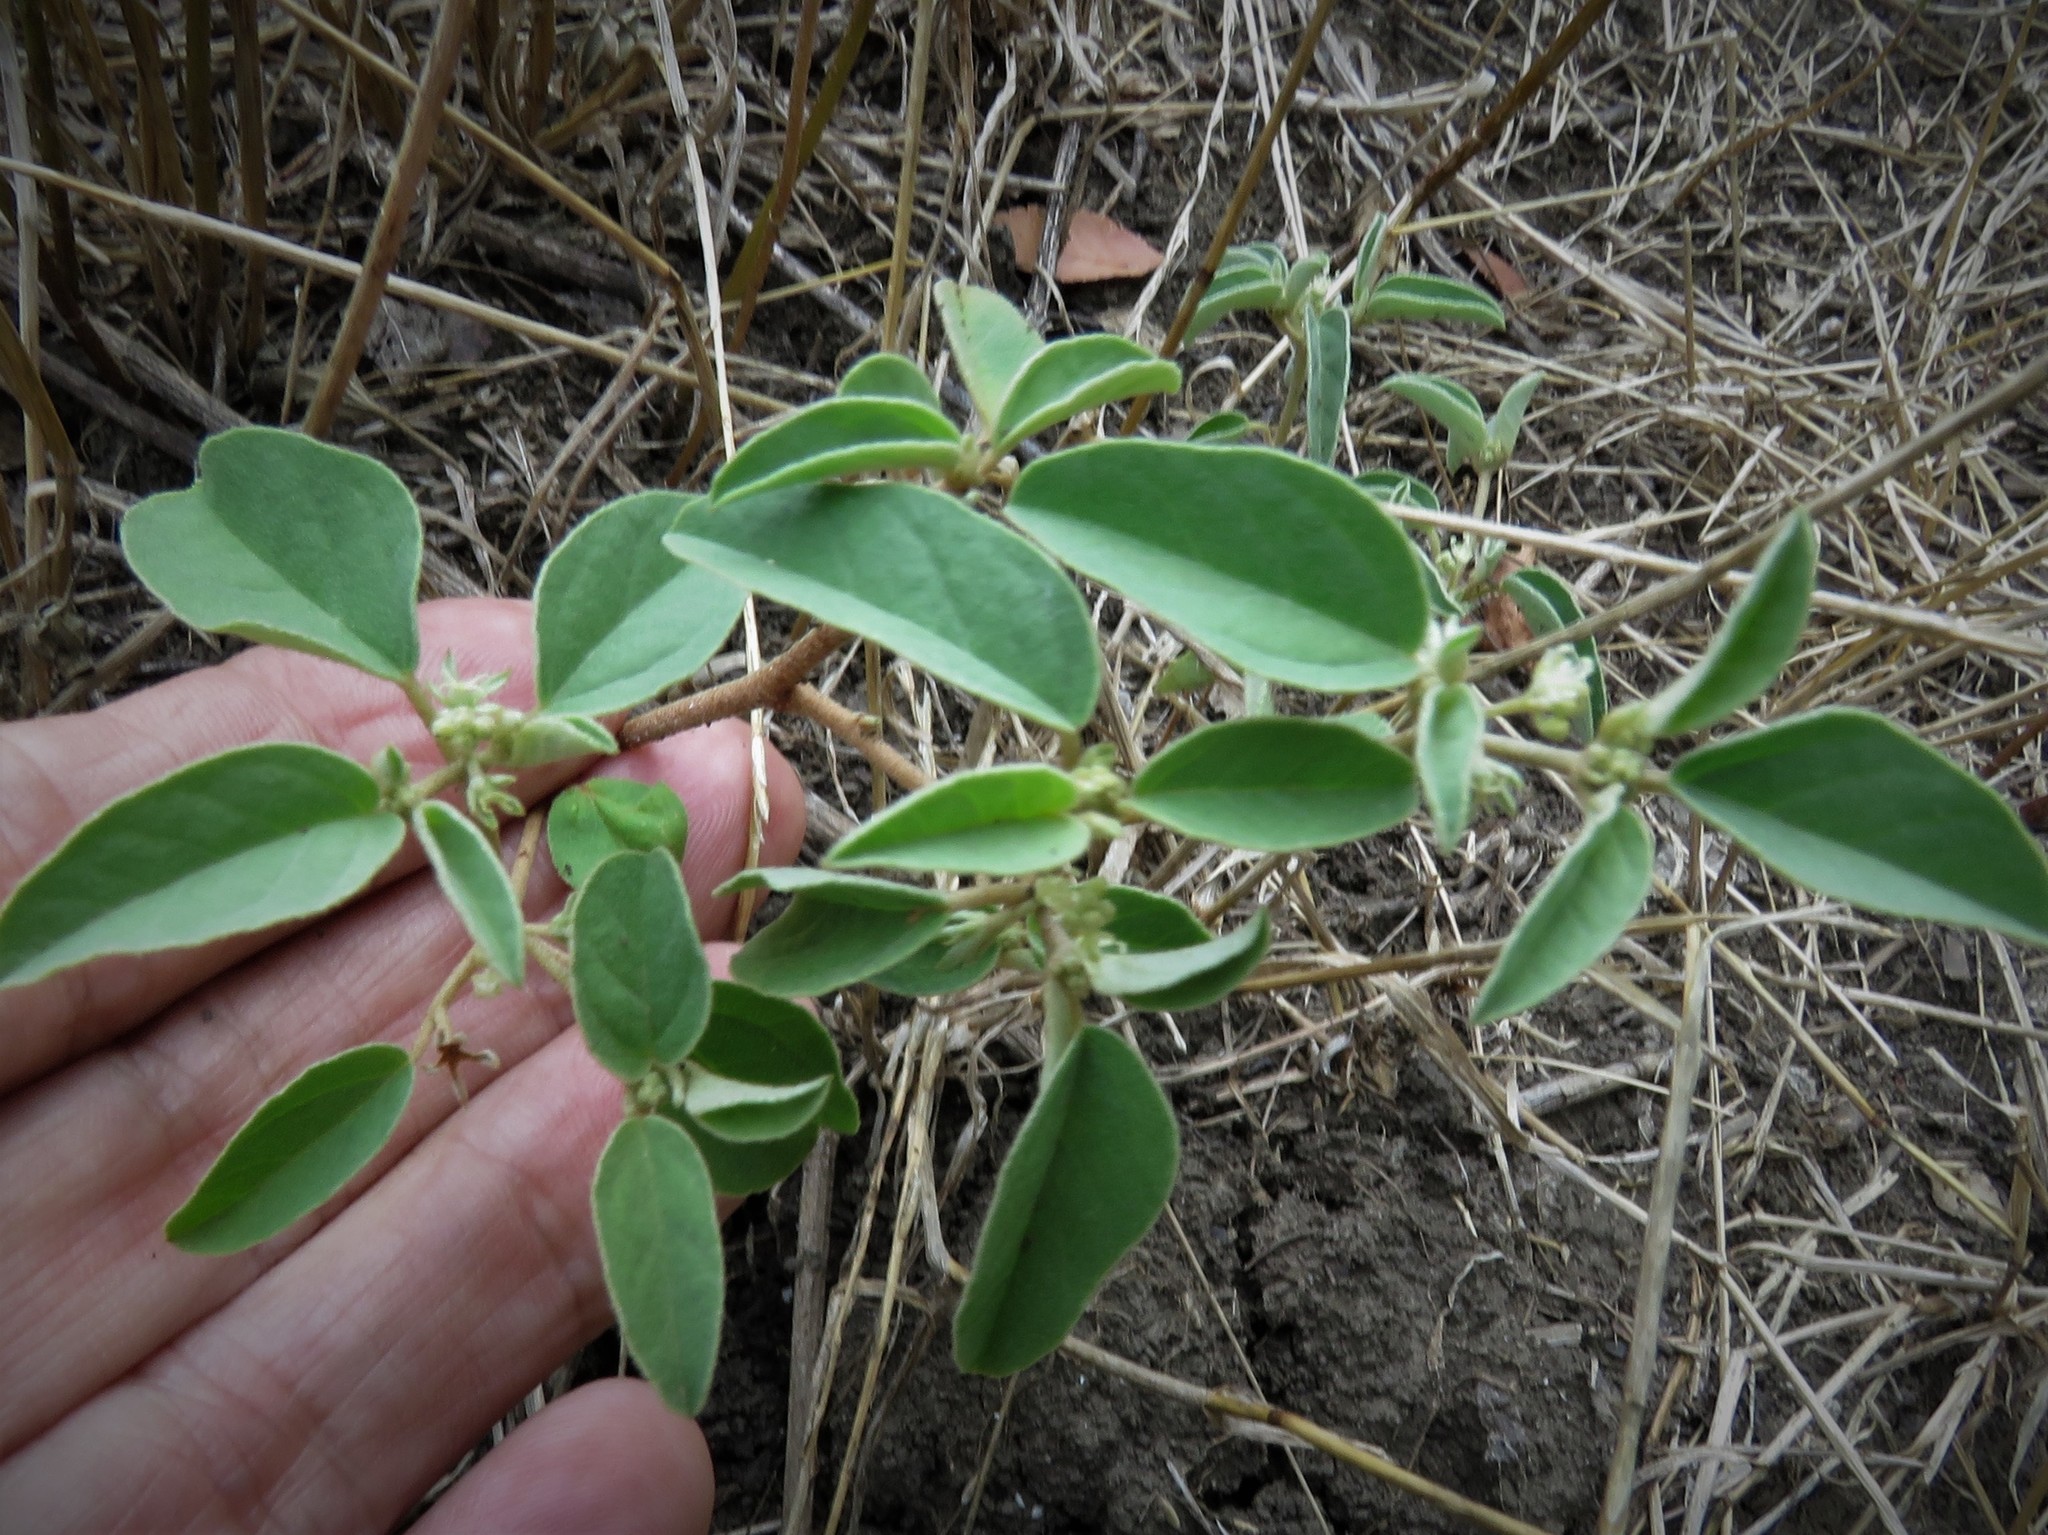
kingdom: Plantae
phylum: Tracheophyta
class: Magnoliopsida
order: Malpighiales
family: Euphorbiaceae
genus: Croton
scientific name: Croton monanthogynus
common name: One-seed croton
